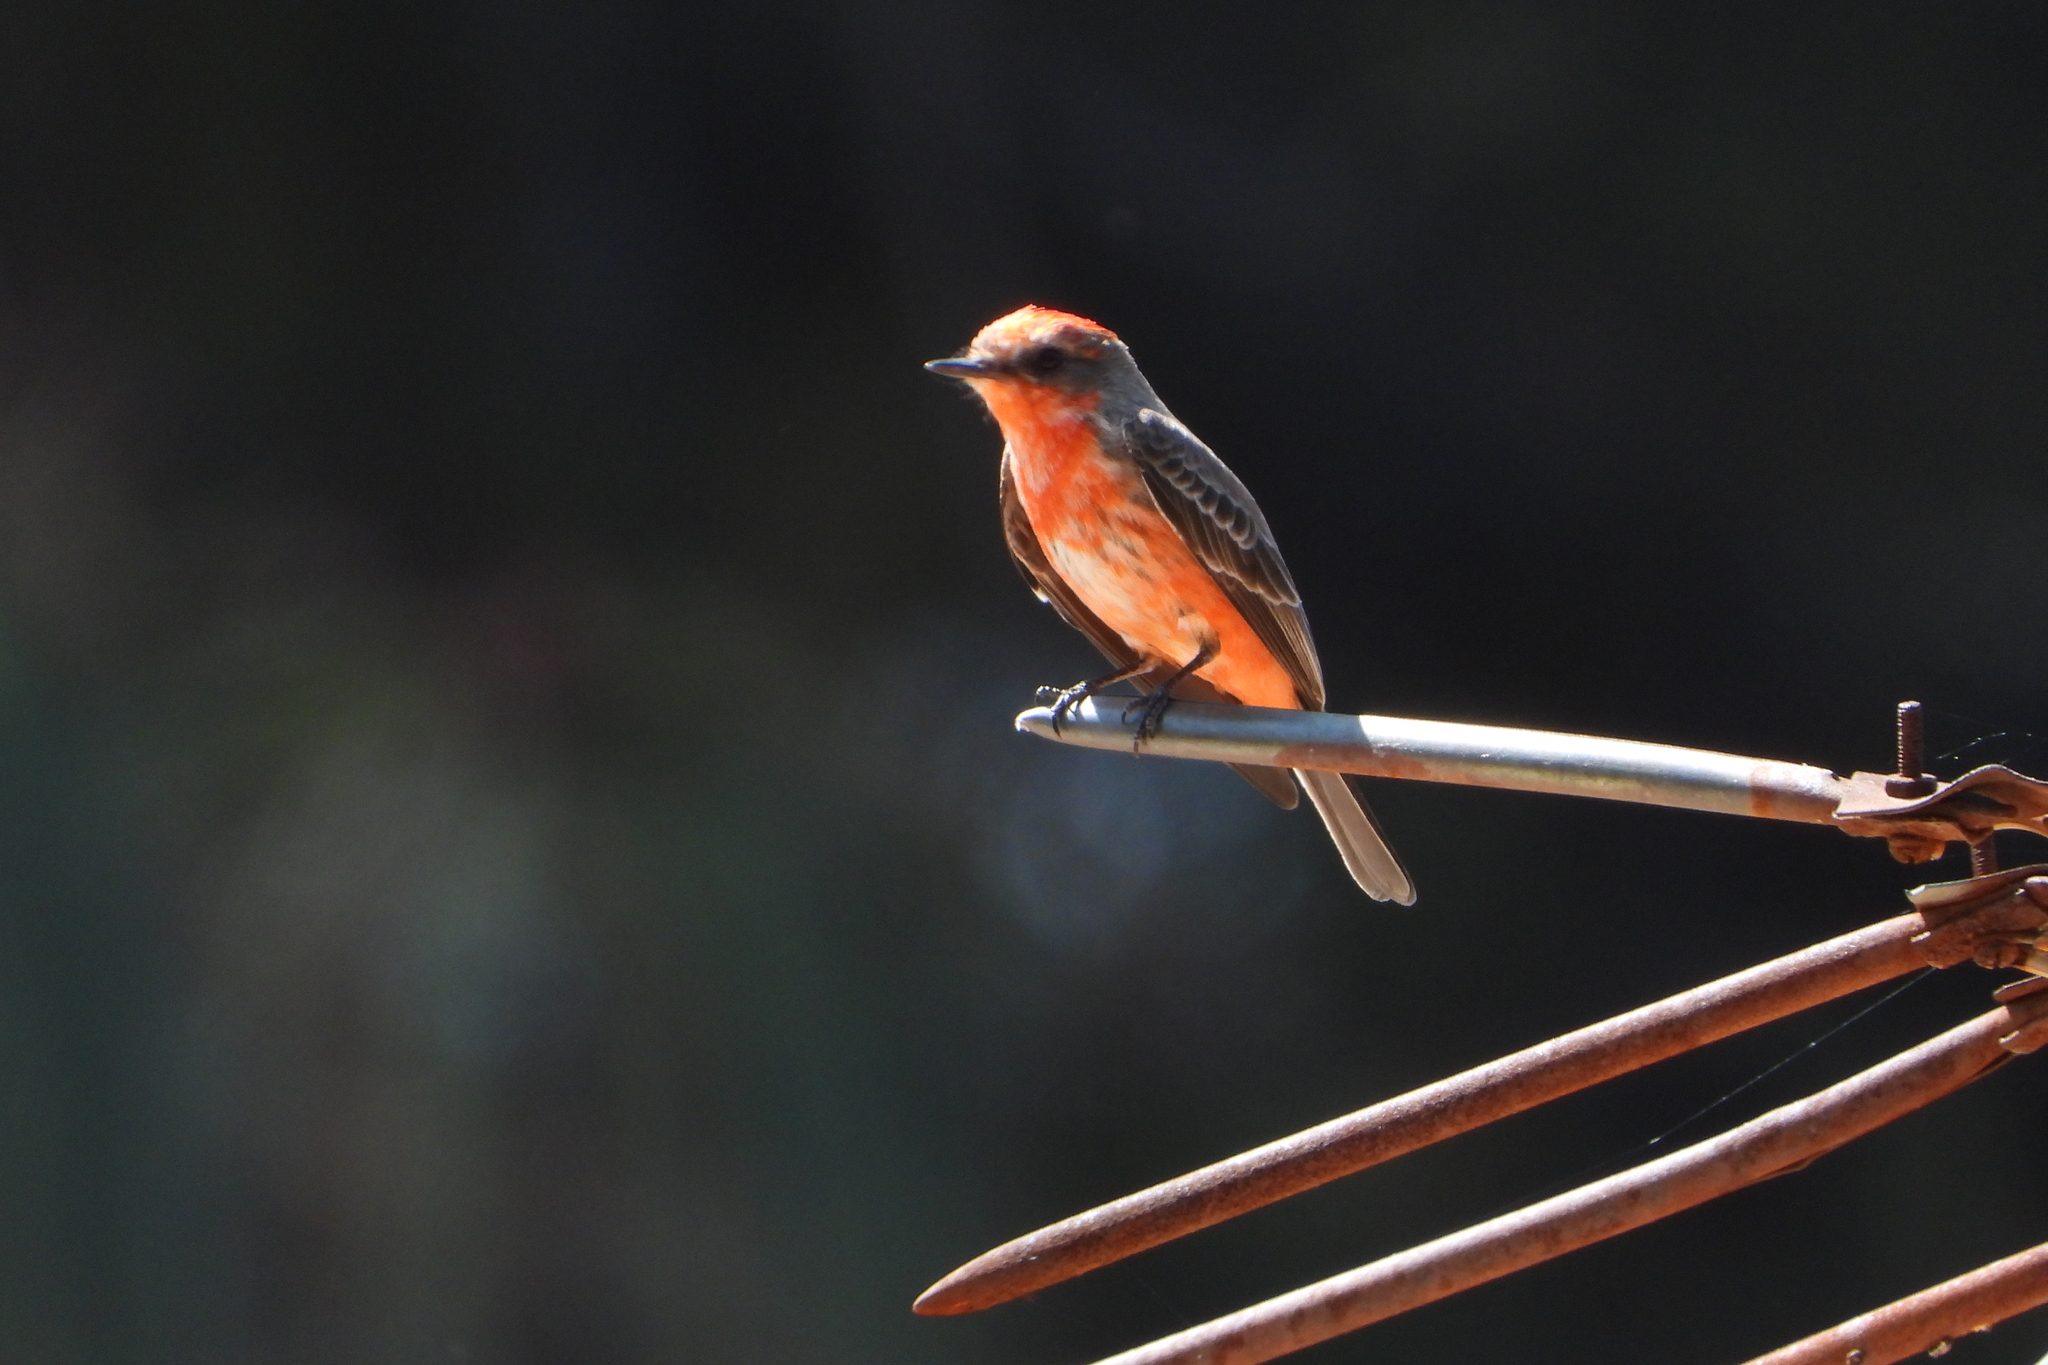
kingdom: Animalia
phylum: Chordata
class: Aves
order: Passeriformes
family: Tyrannidae
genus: Pyrocephalus
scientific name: Pyrocephalus rubinus
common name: Vermilion flycatcher
